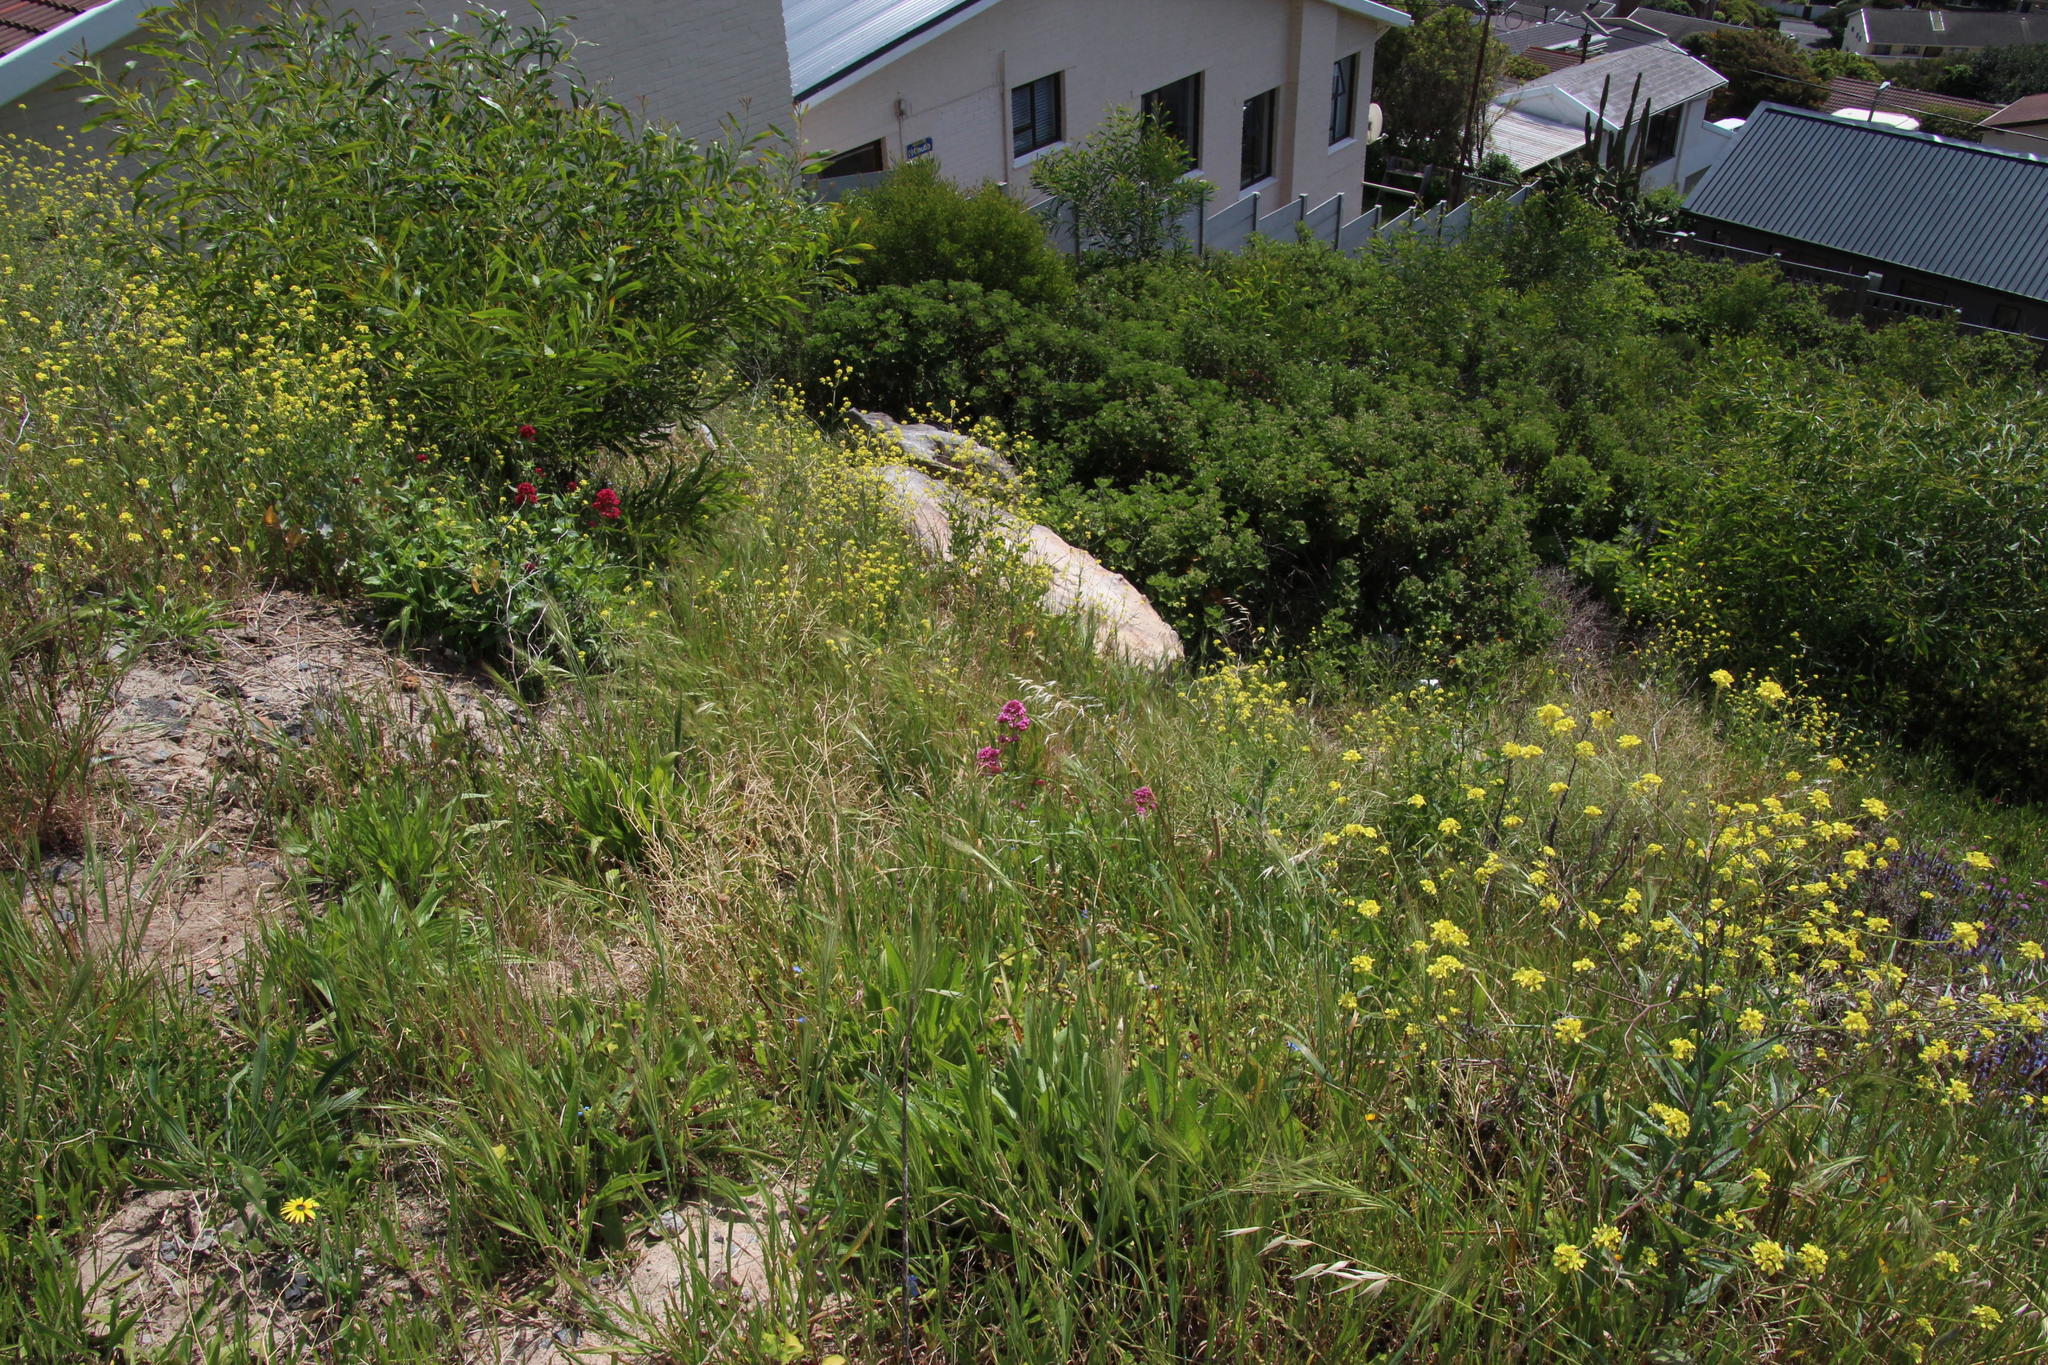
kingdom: Plantae
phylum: Tracheophyta
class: Magnoliopsida
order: Fabales
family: Fabaceae
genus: Acacia
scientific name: Acacia saligna
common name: Orange wattle
